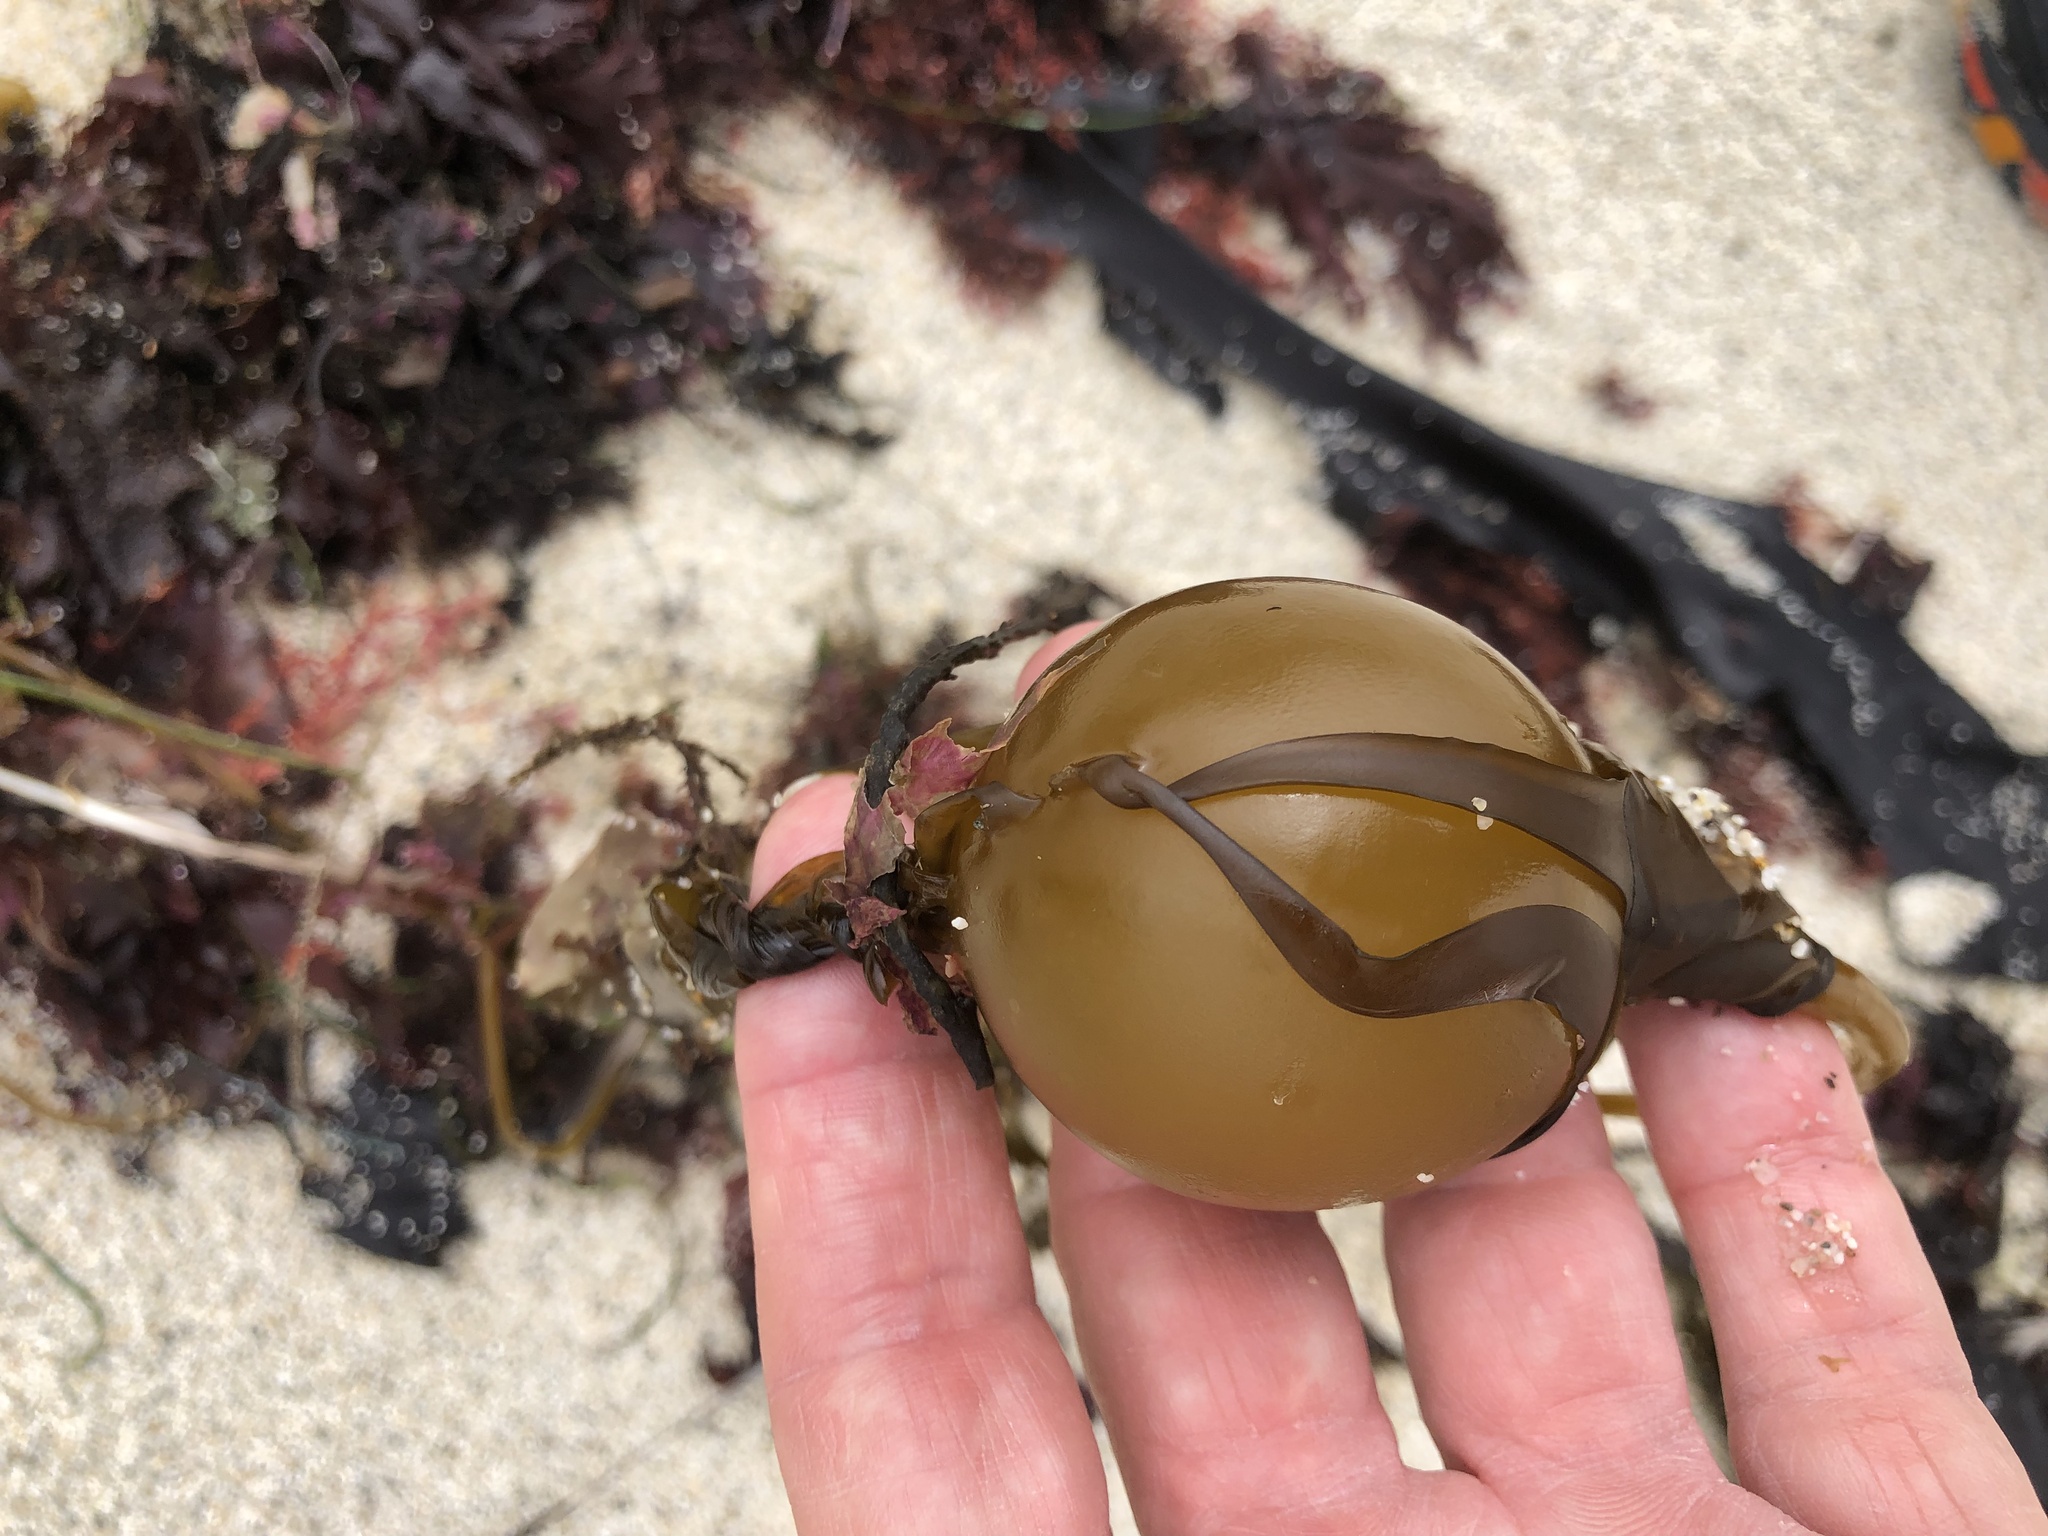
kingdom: Chromista
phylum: Ochrophyta
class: Phaeophyceae
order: Laminariales
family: Laminariaceae
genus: Nereocystis
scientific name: Nereocystis luetkeana
